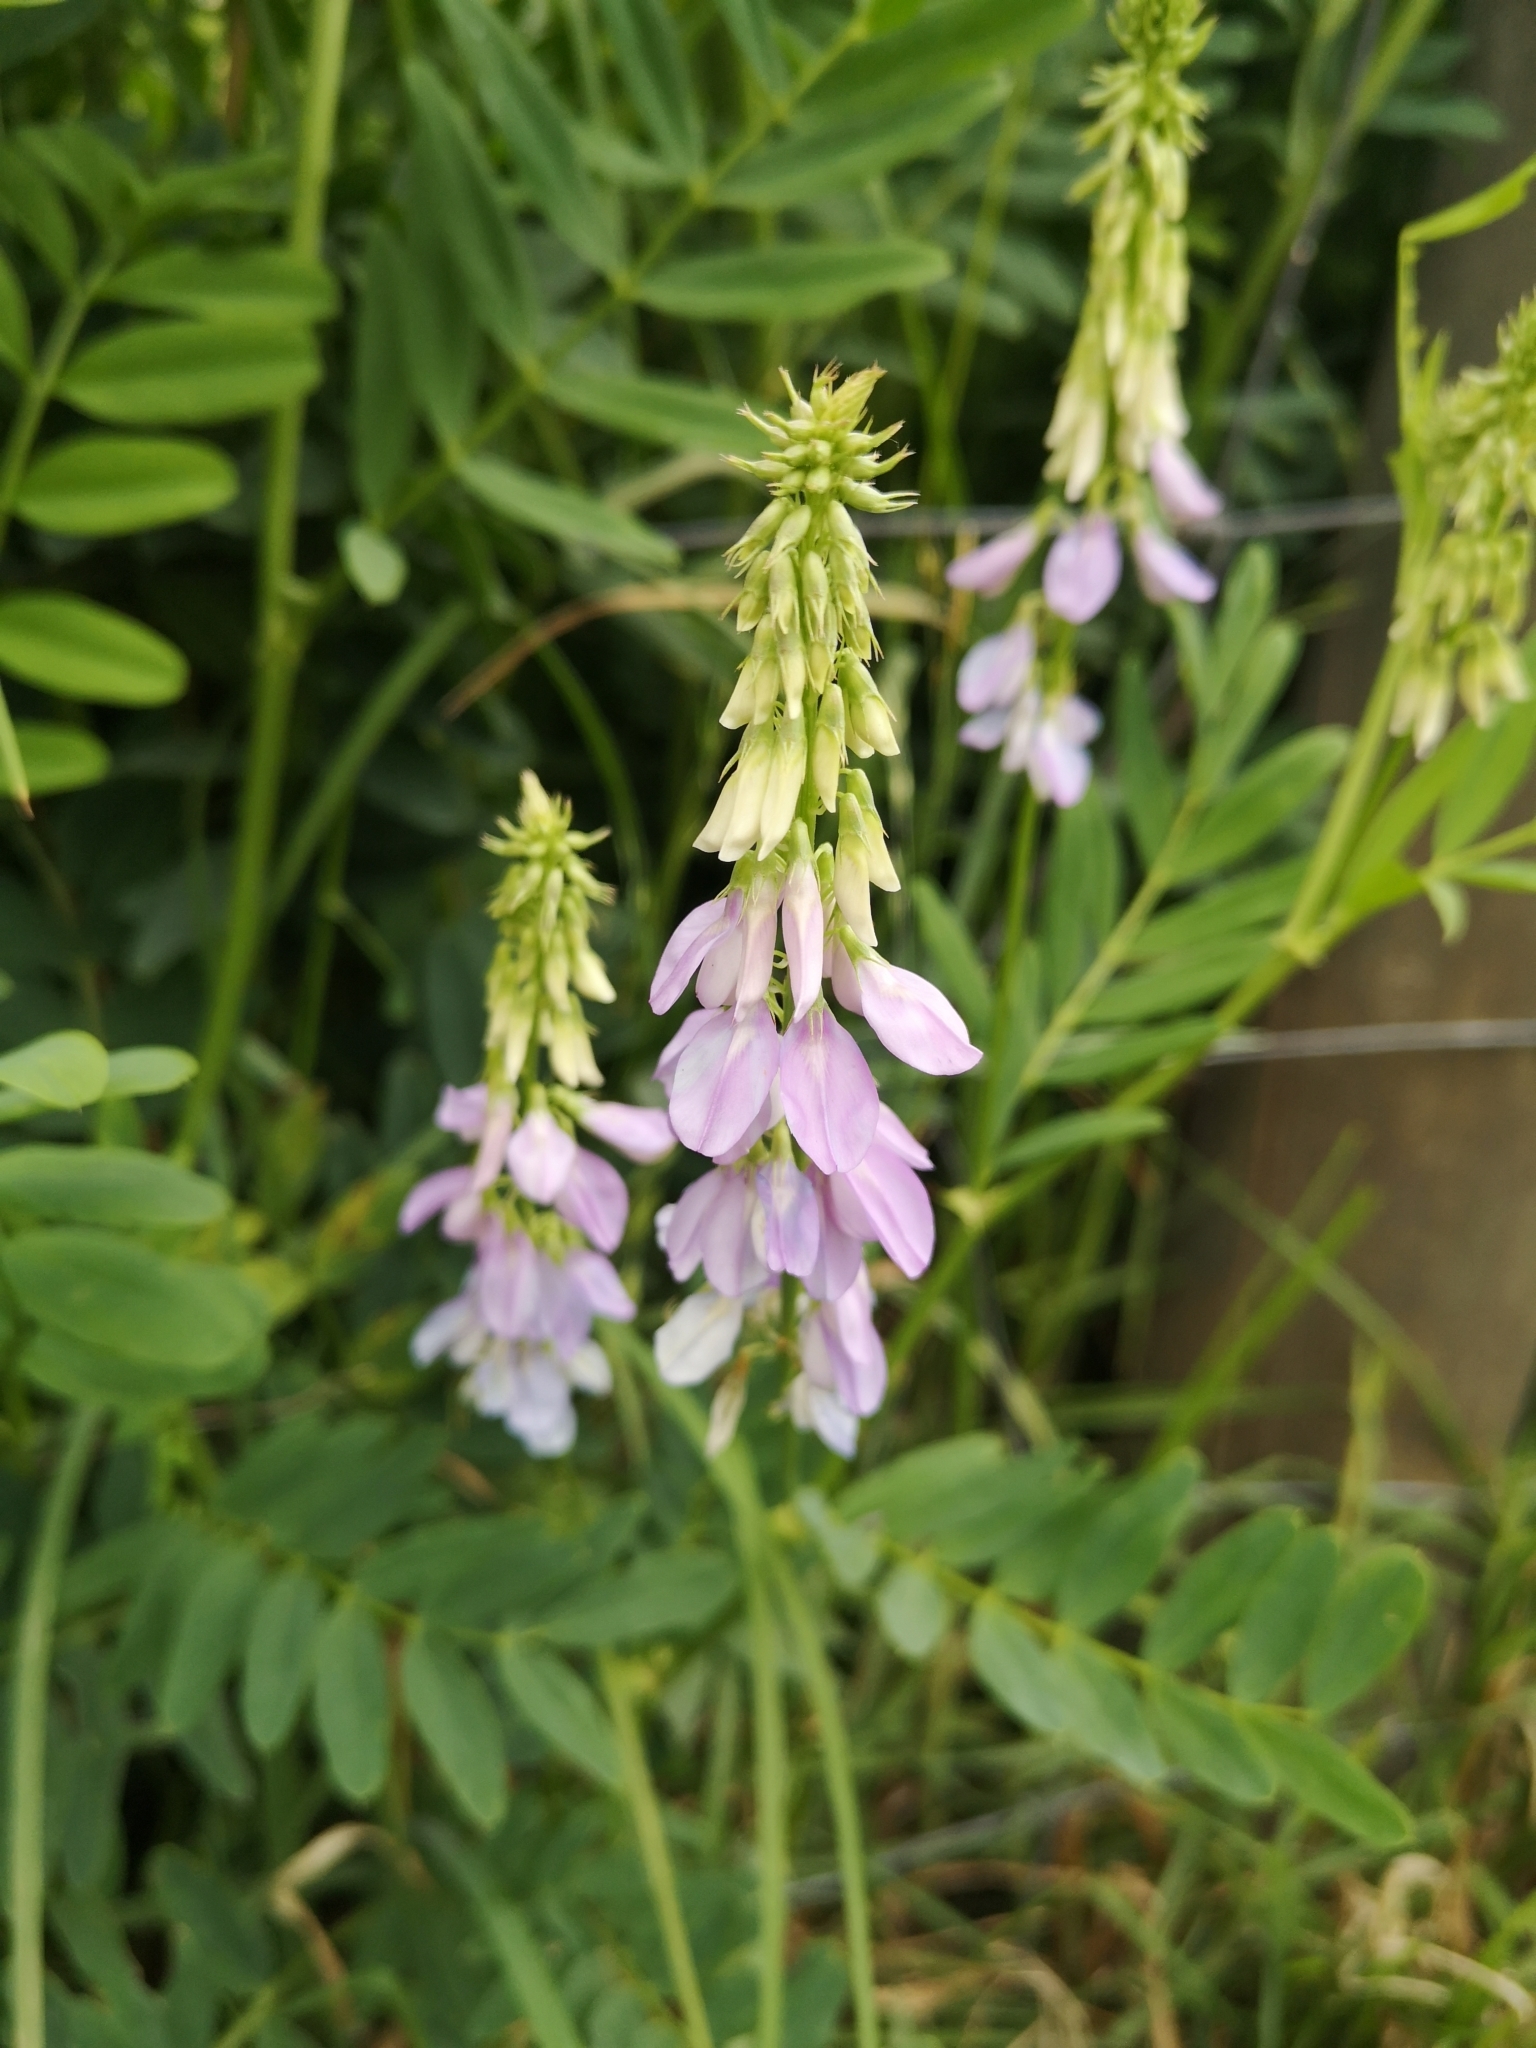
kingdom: Plantae
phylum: Tracheophyta
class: Magnoliopsida
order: Fabales
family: Fabaceae
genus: Galega
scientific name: Galega officinalis
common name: Goat's-rue
